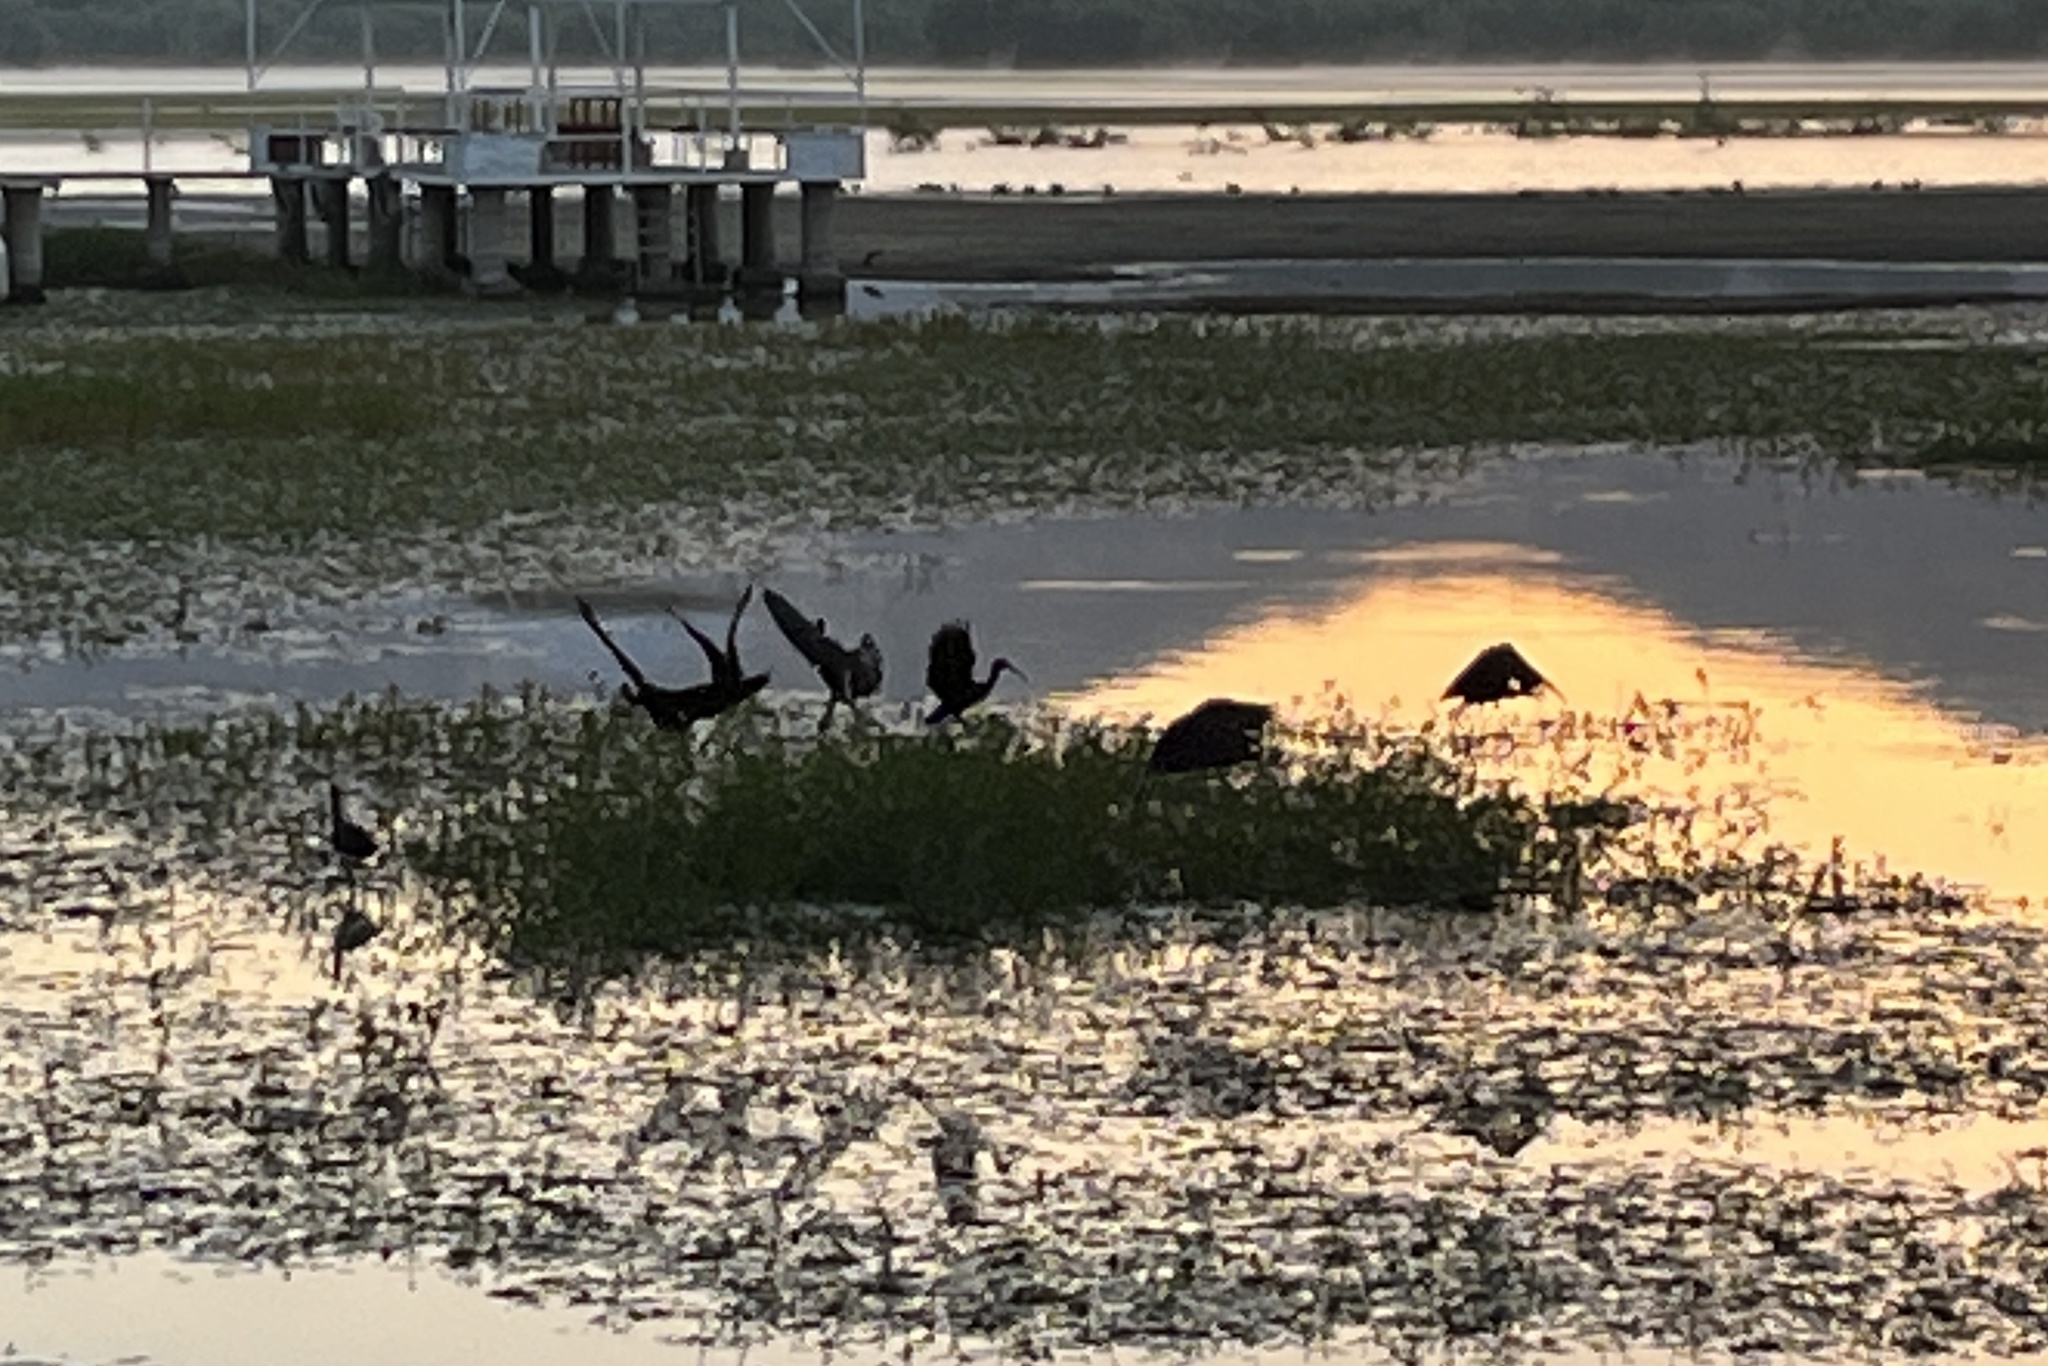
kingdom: Animalia
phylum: Chordata
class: Aves
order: Pelecaniformes
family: Threskiornithidae
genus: Plegadis
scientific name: Plegadis chihi
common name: White-faced ibis
